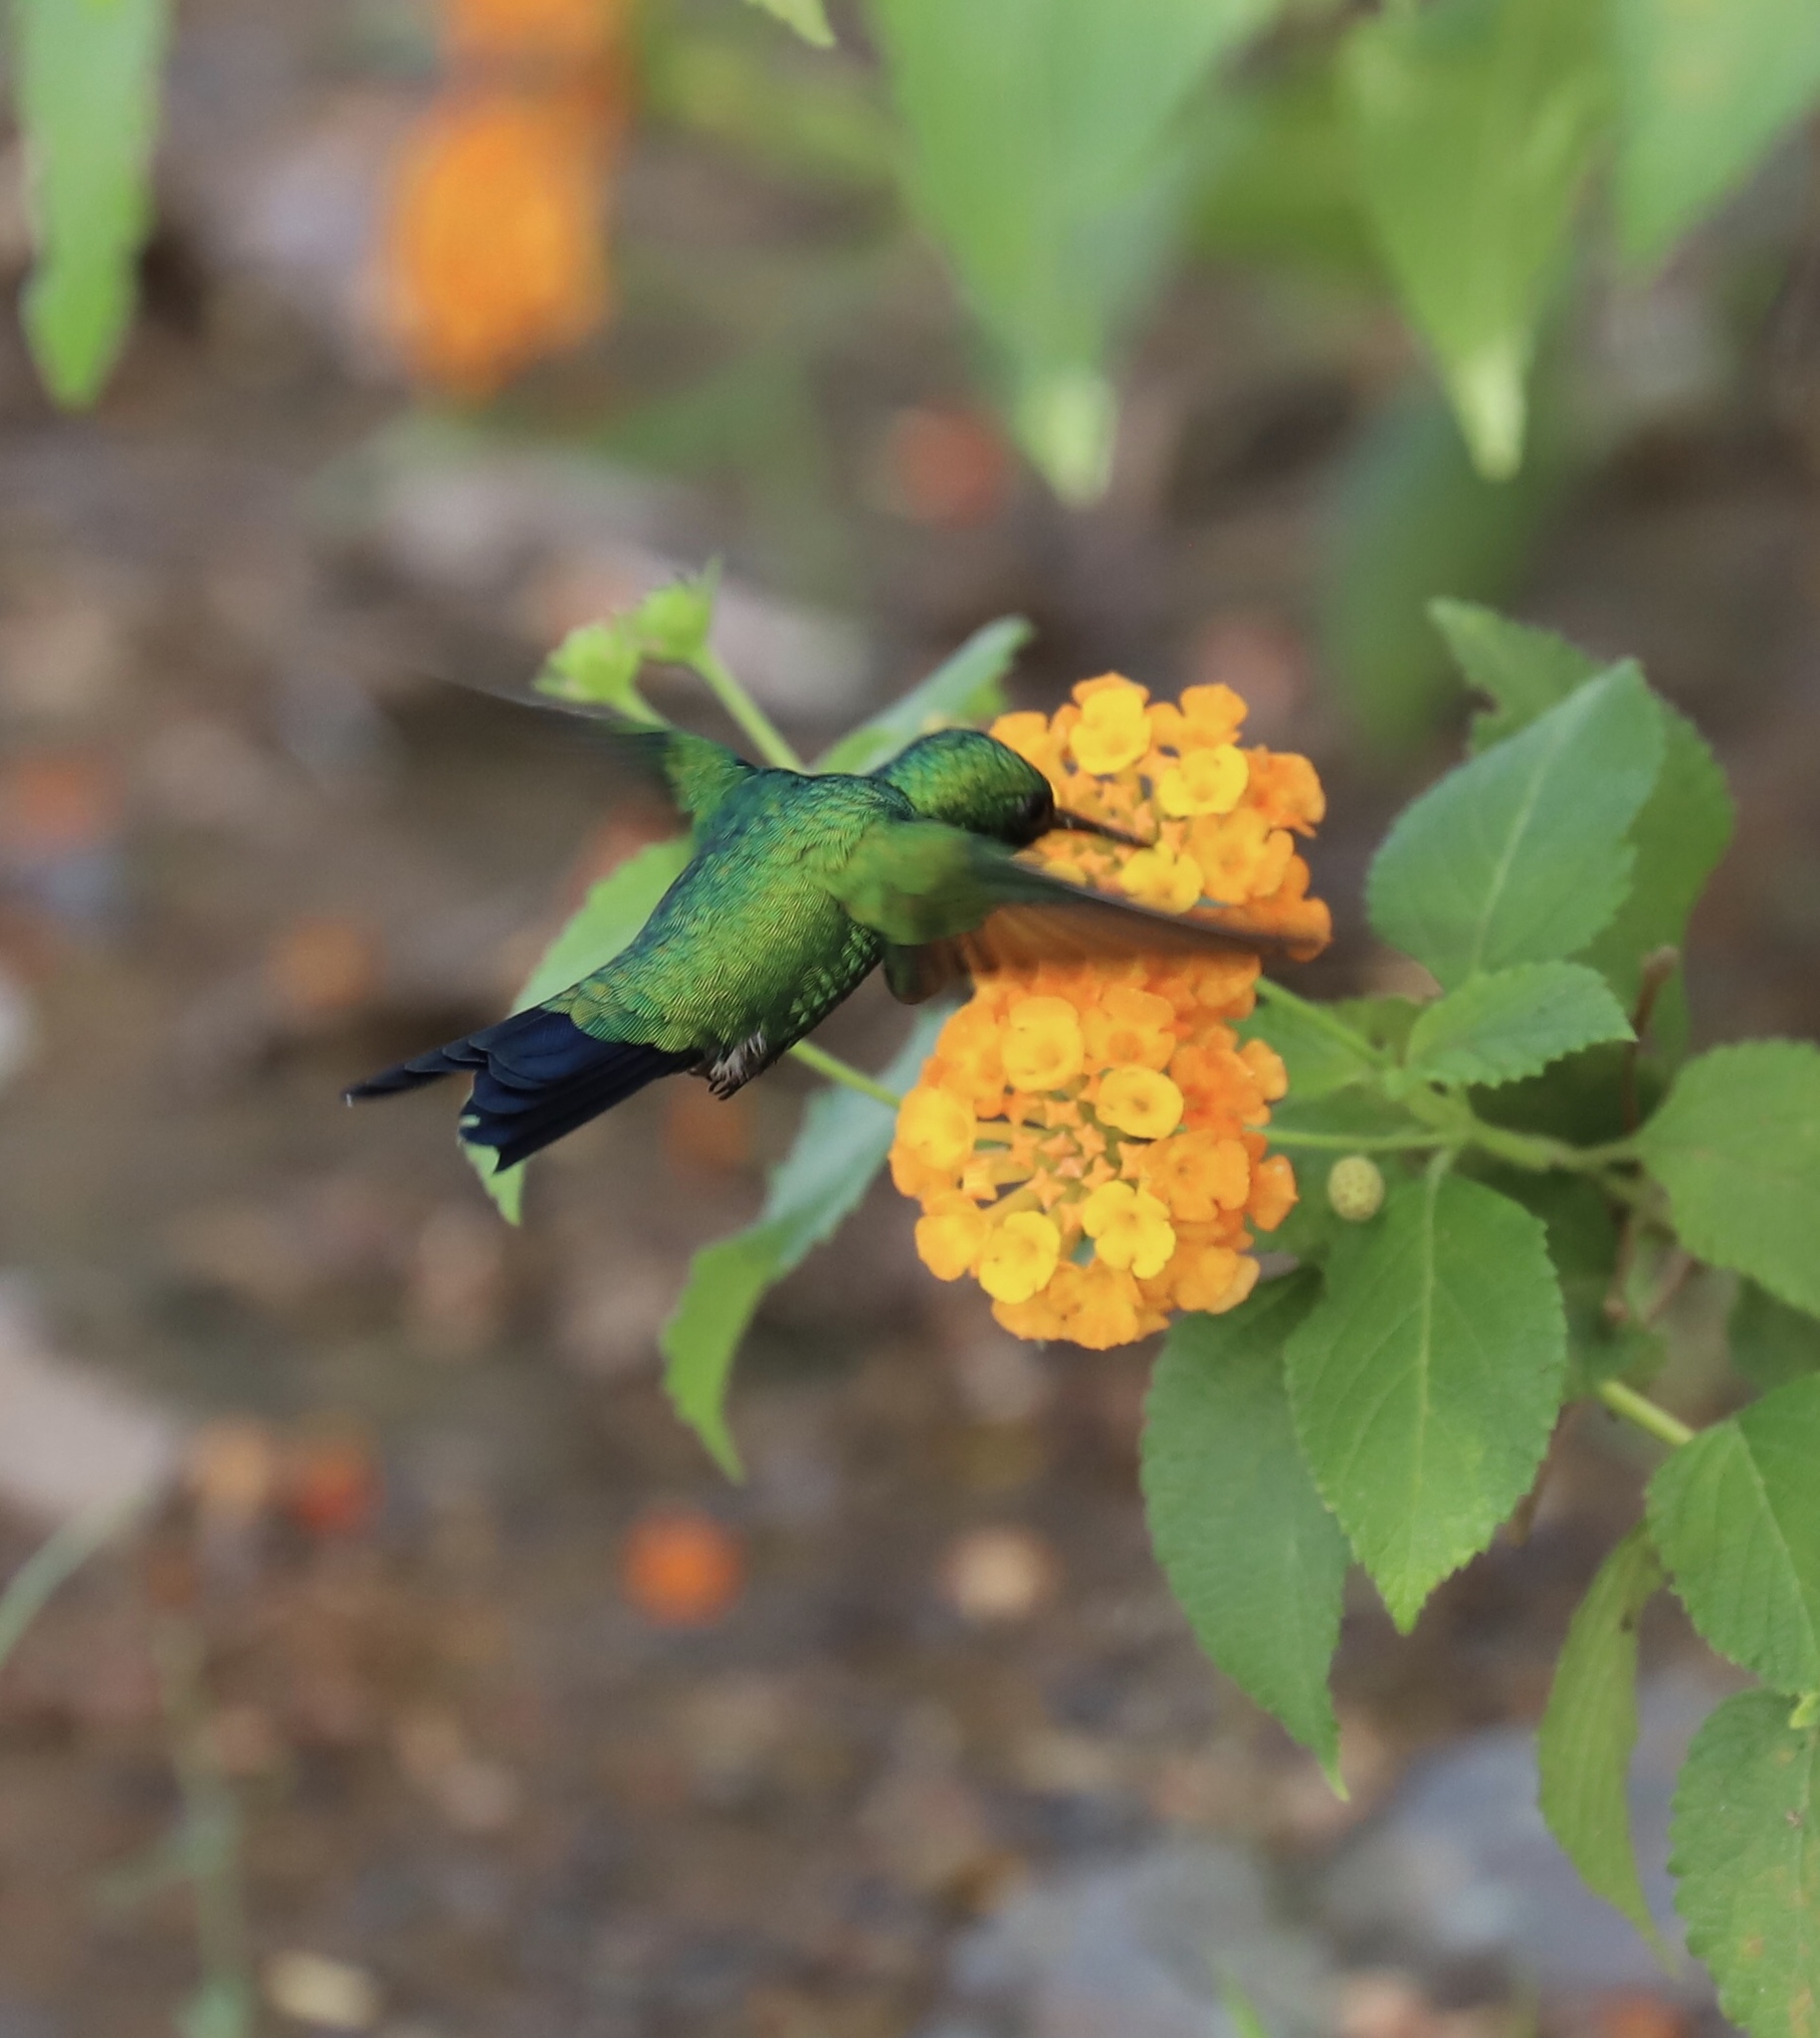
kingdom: Animalia
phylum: Chordata
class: Aves
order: Apodiformes
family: Trochilidae
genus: Chlorostilbon
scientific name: Chlorostilbon assimilis
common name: Garden emerald
